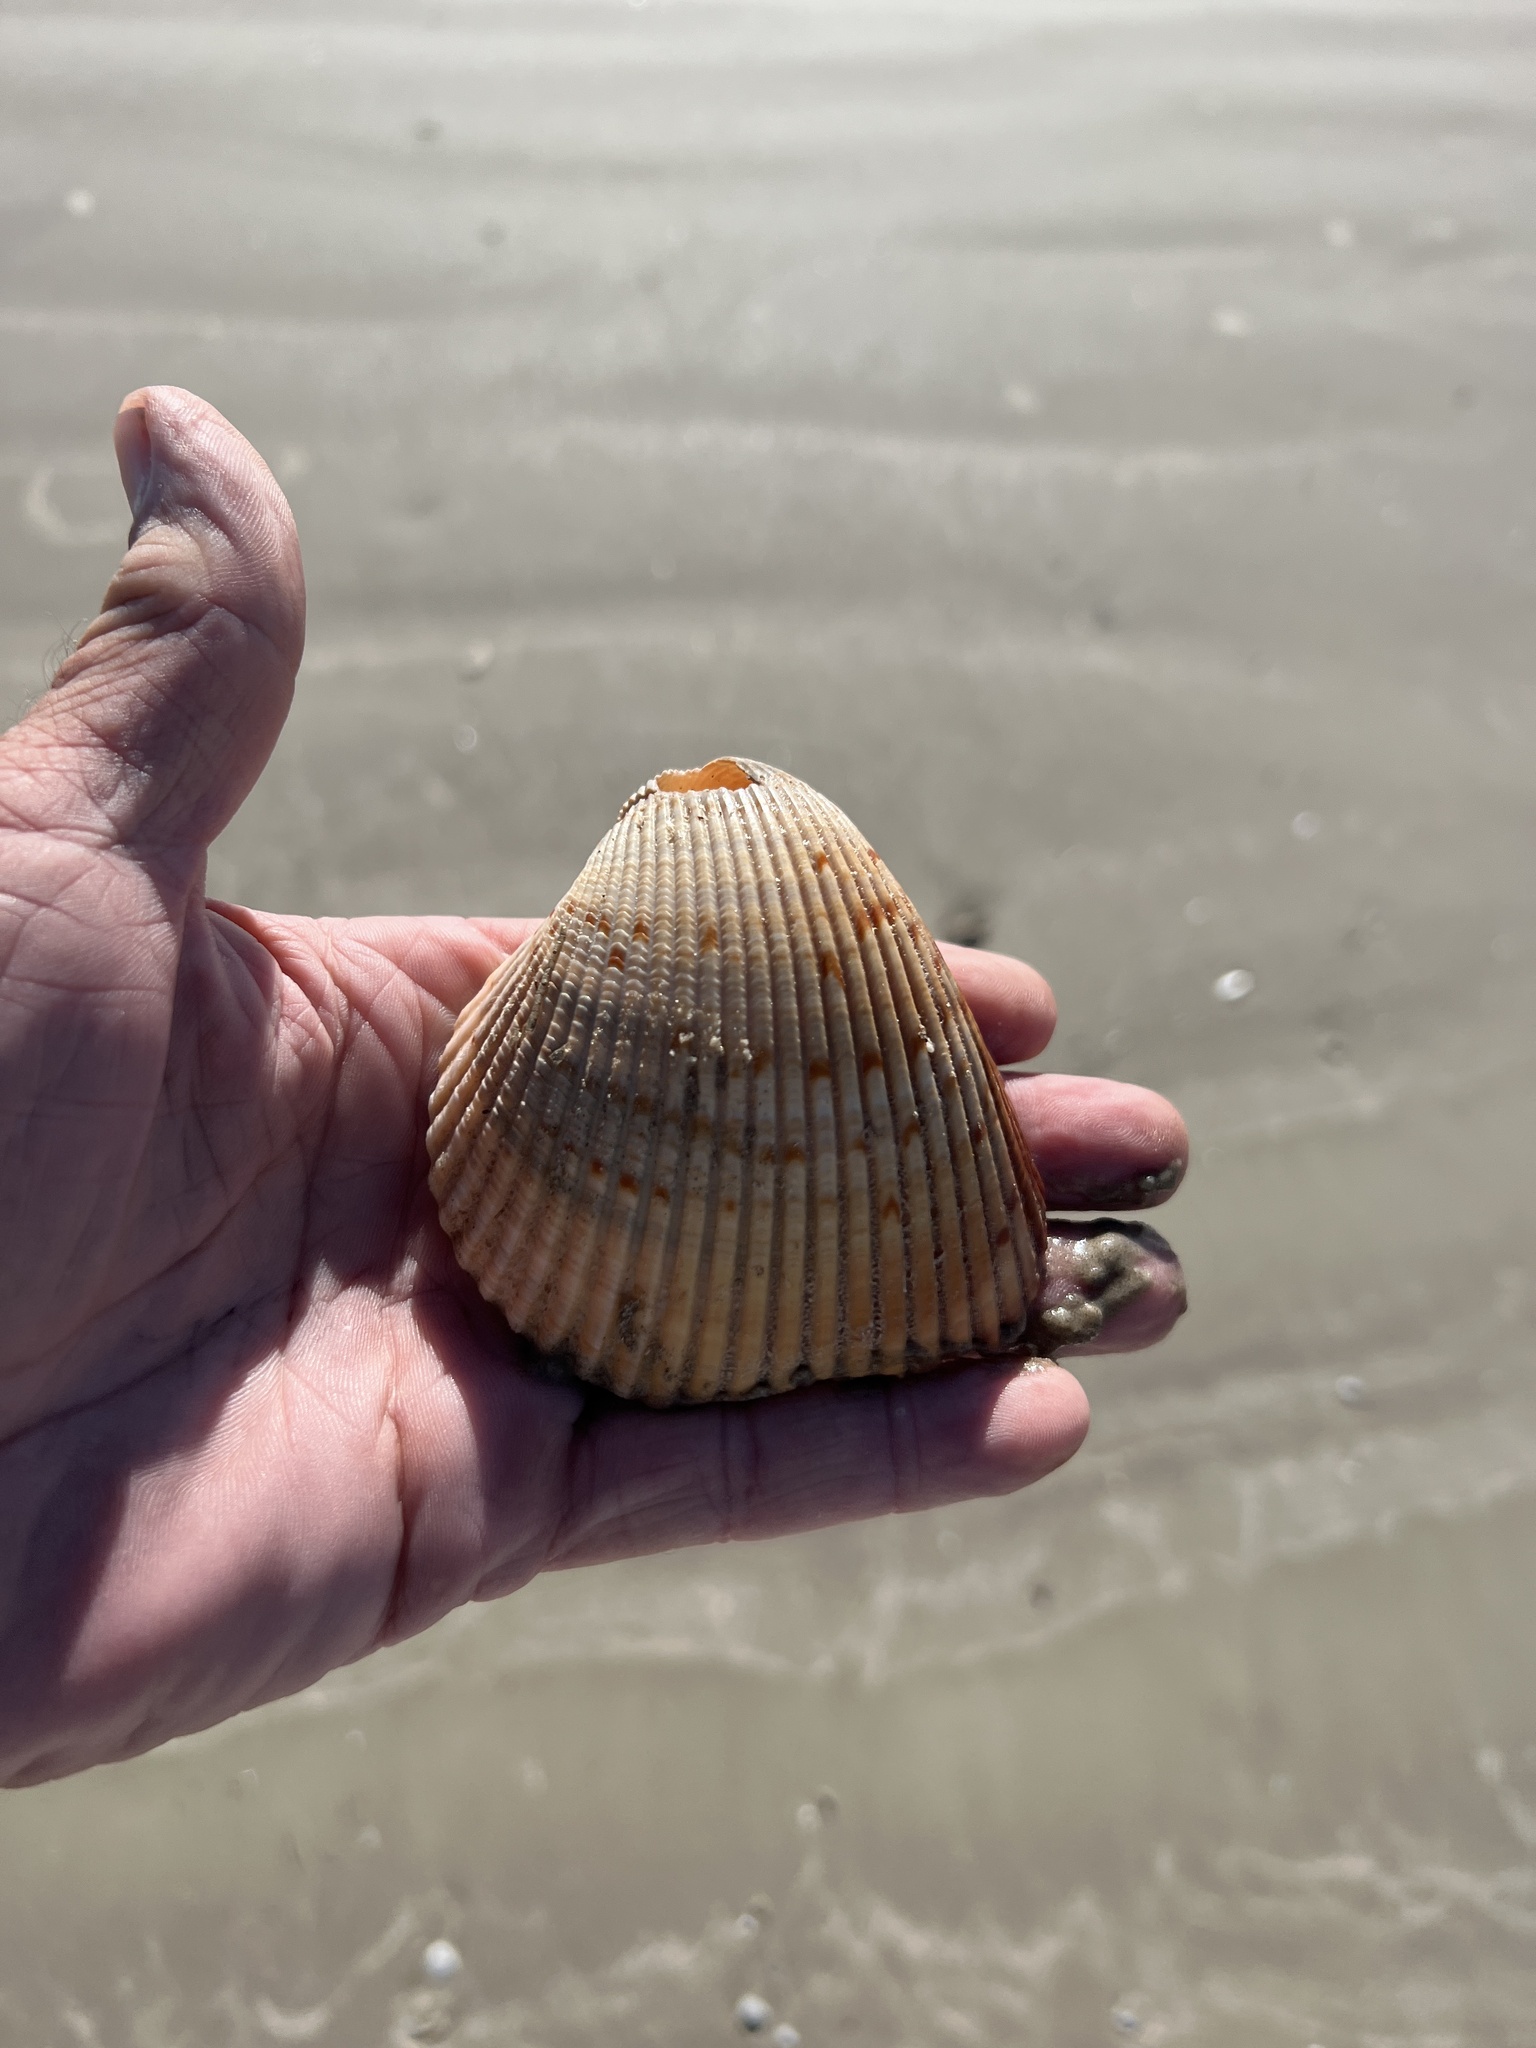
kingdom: Animalia
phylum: Mollusca
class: Bivalvia
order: Cardiida
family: Cardiidae
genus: Dinocardium
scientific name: Dinocardium robustum
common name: Atlantic giant cockle
